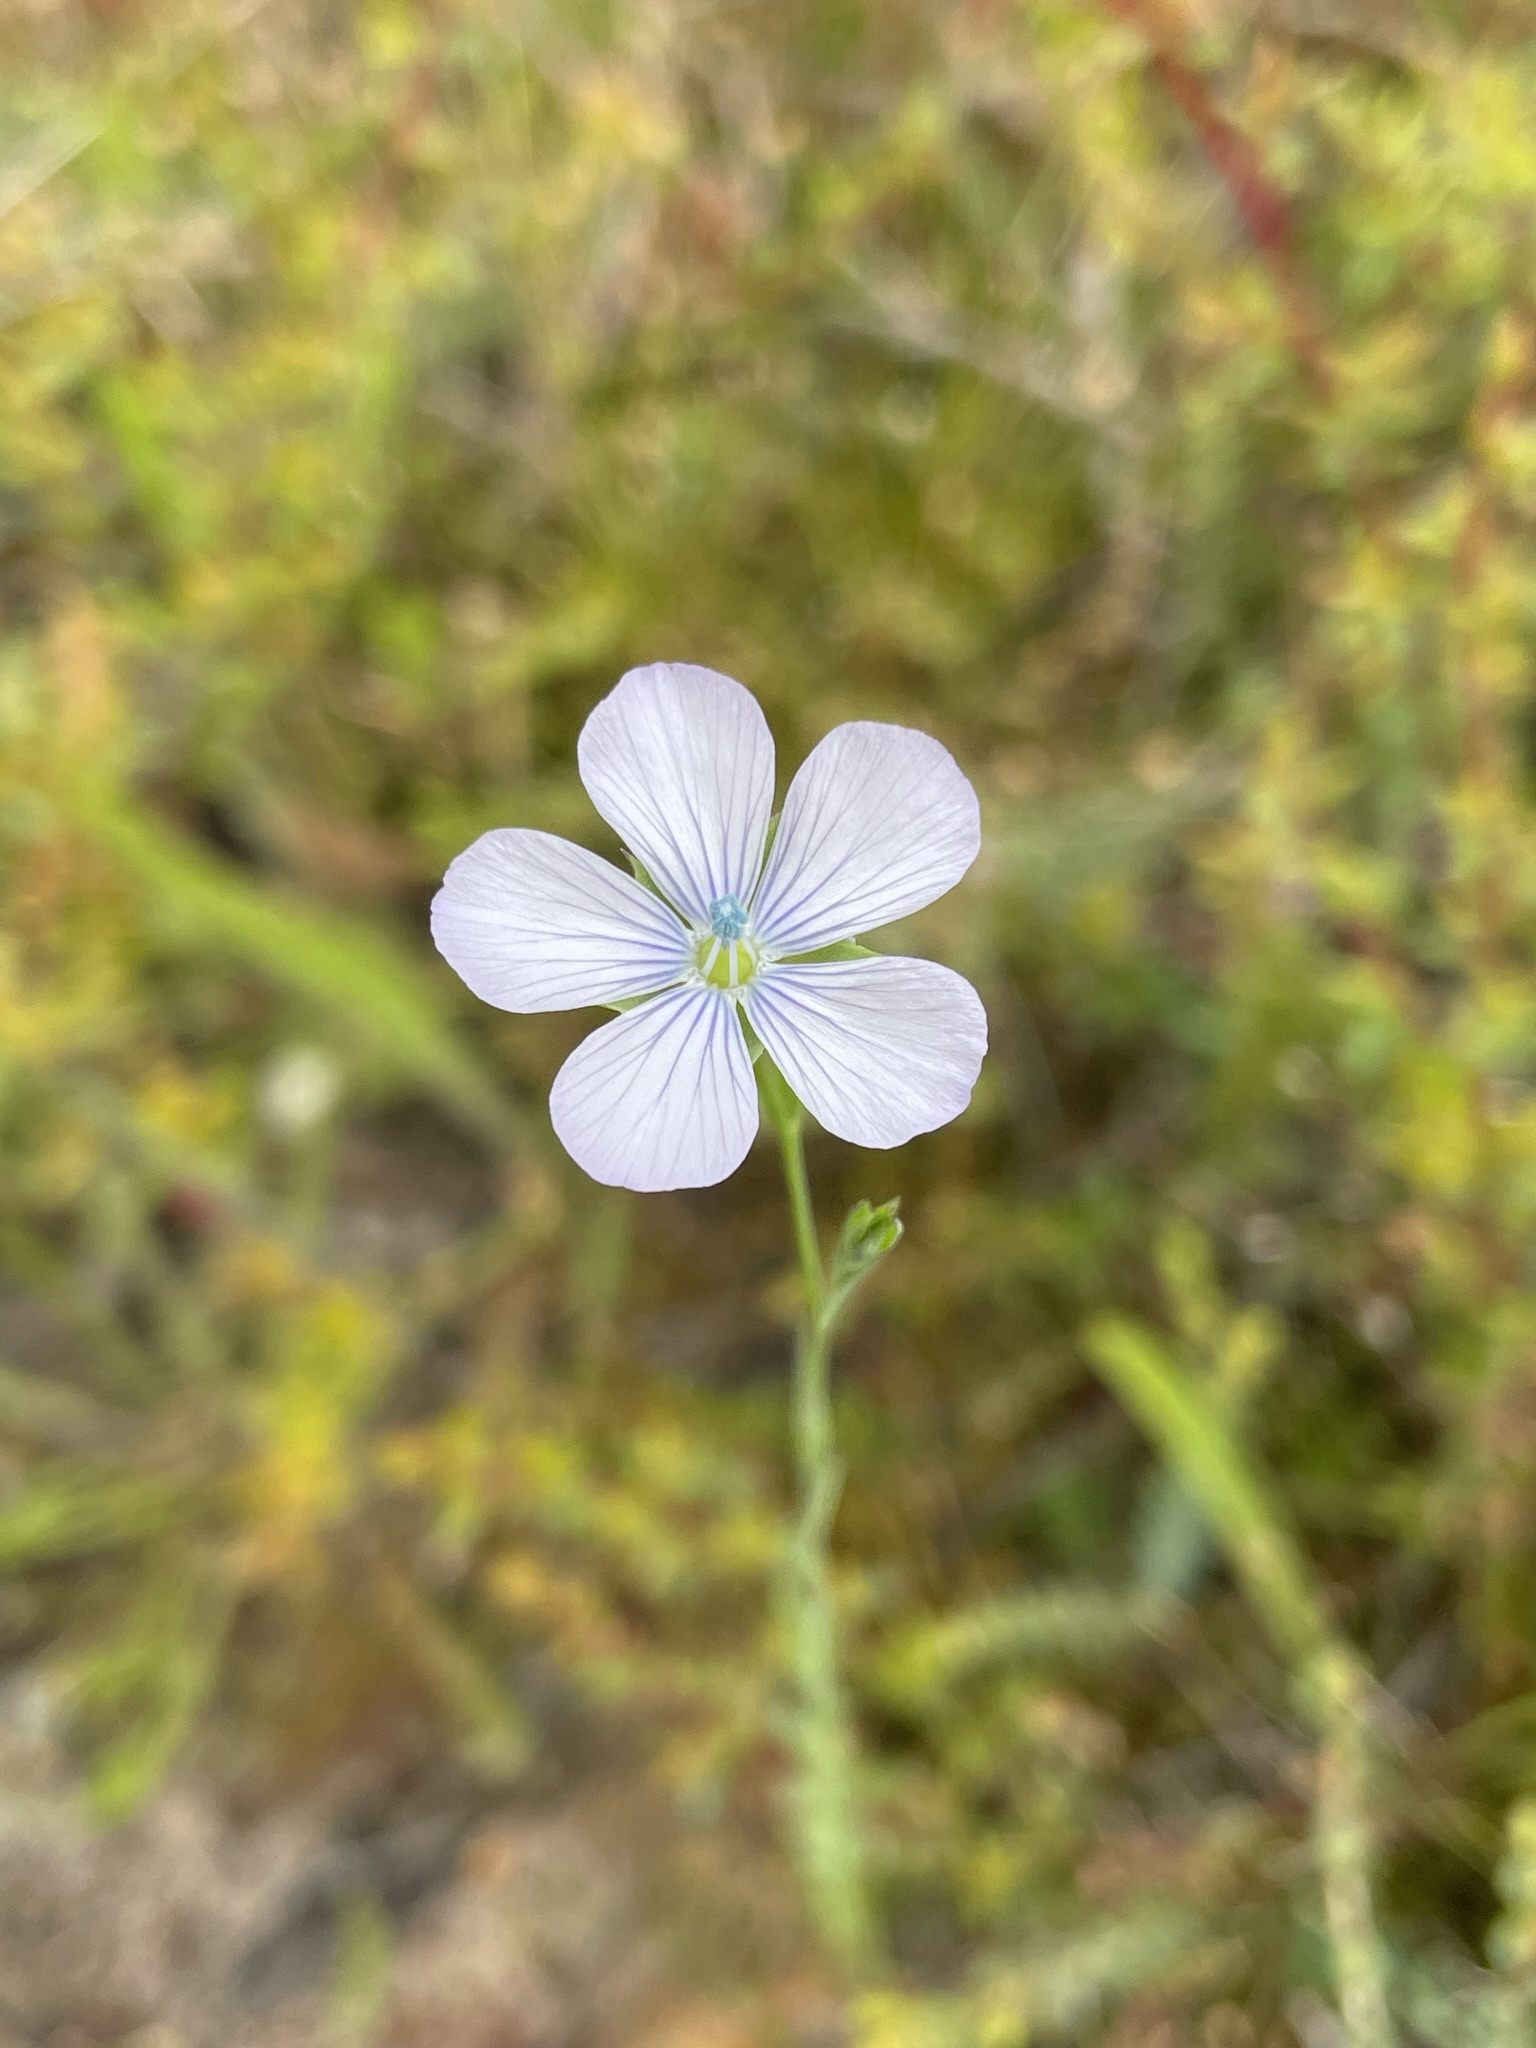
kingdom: Plantae
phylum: Tracheophyta
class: Magnoliopsida
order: Malpighiales
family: Linaceae
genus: Linum
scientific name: Linum marginale
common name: Wild flax
